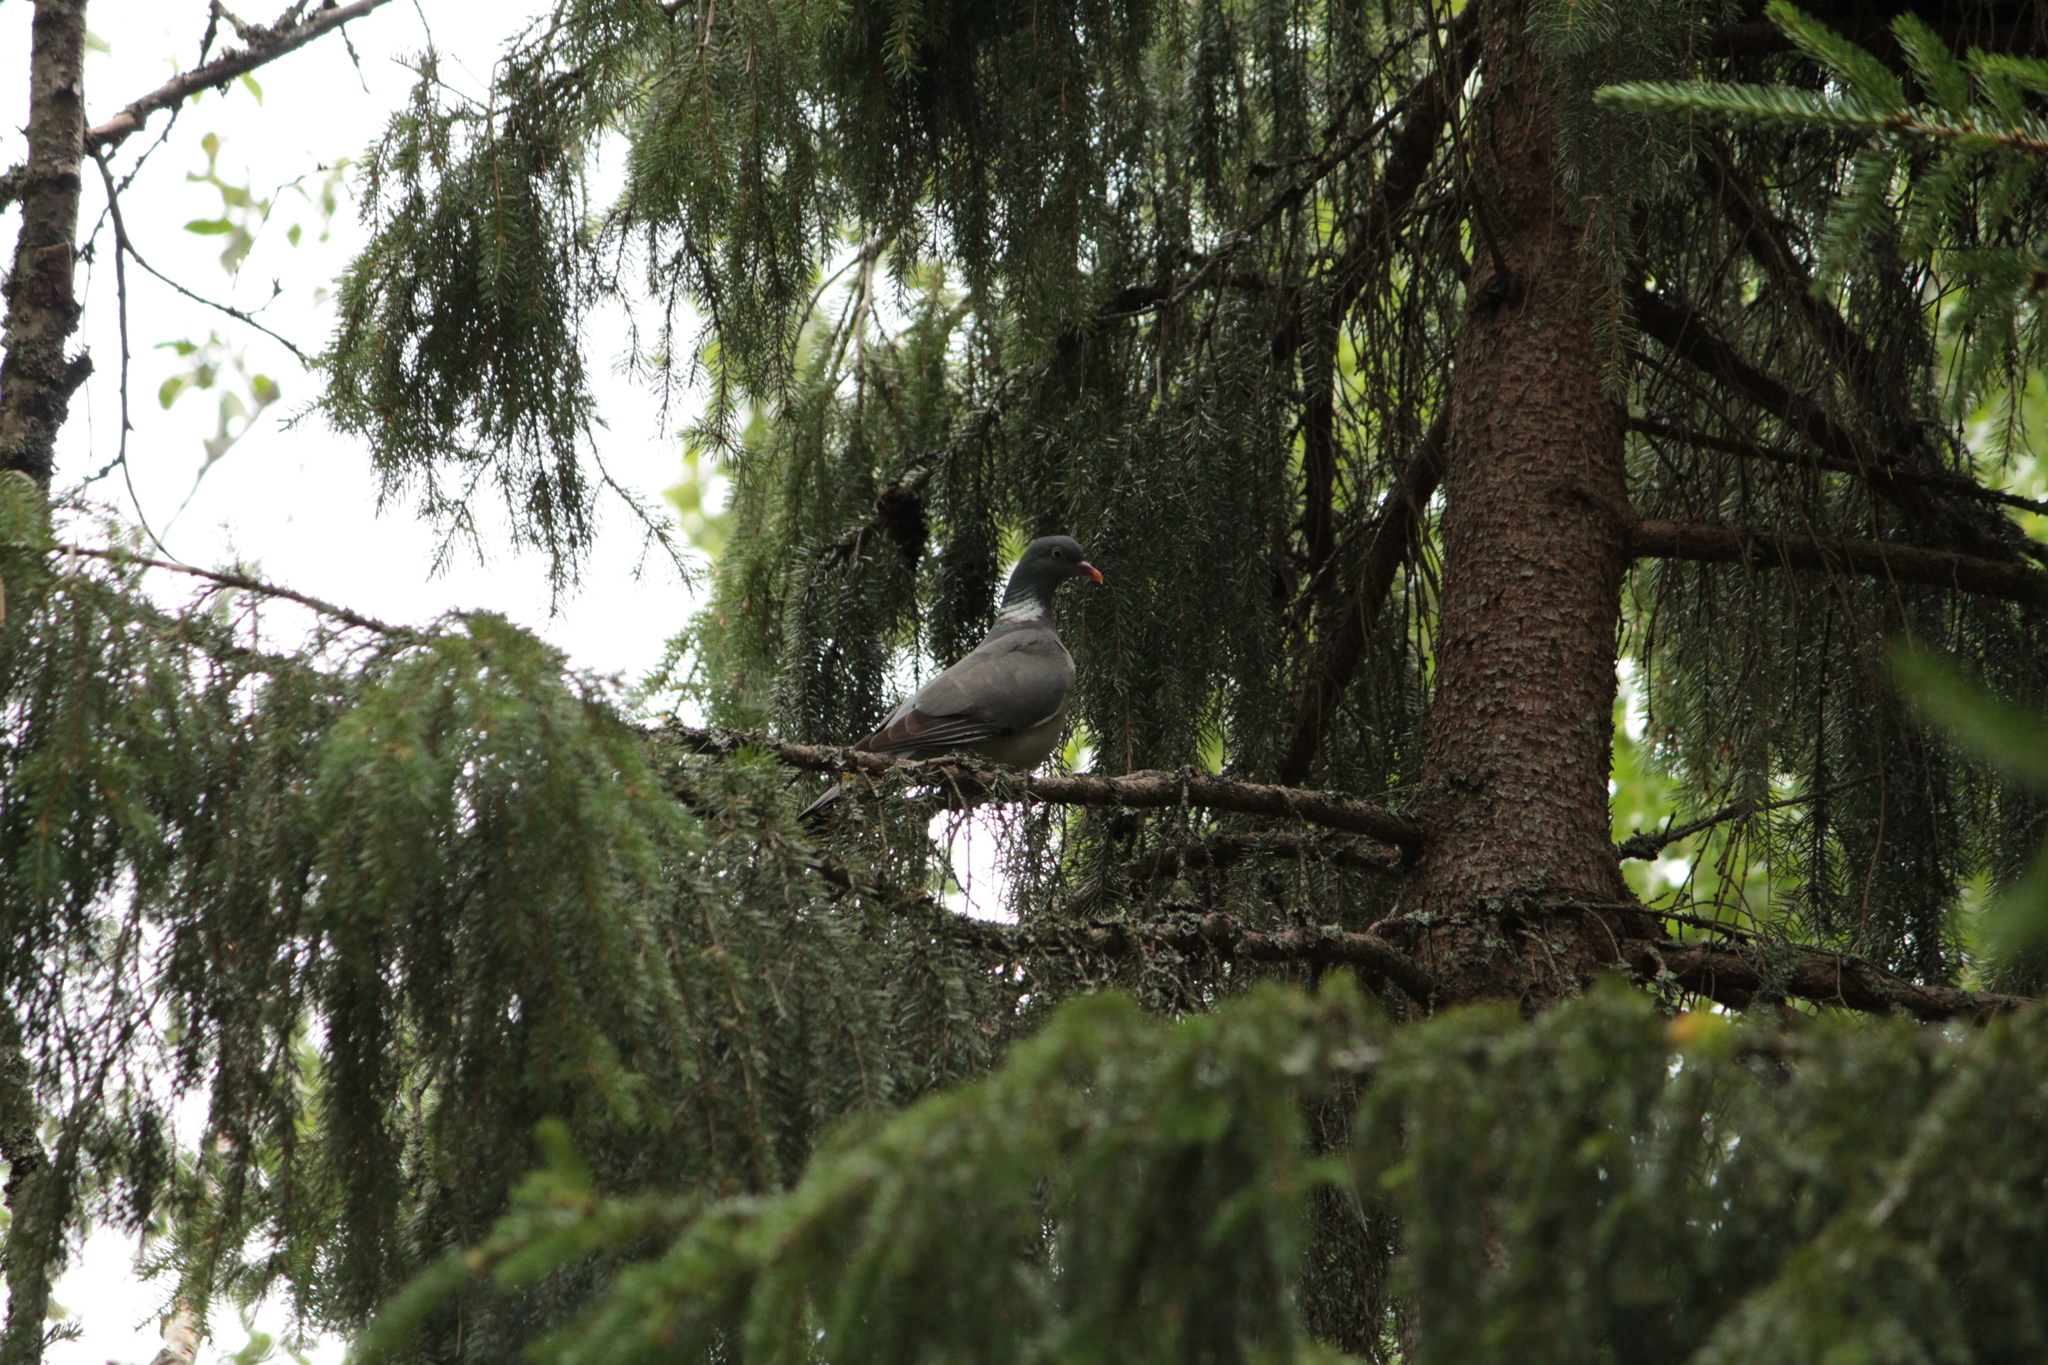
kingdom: Animalia
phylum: Chordata
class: Aves
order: Columbiformes
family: Columbidae
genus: Columba
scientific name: Columba palumbus
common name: Common wood pigeon
